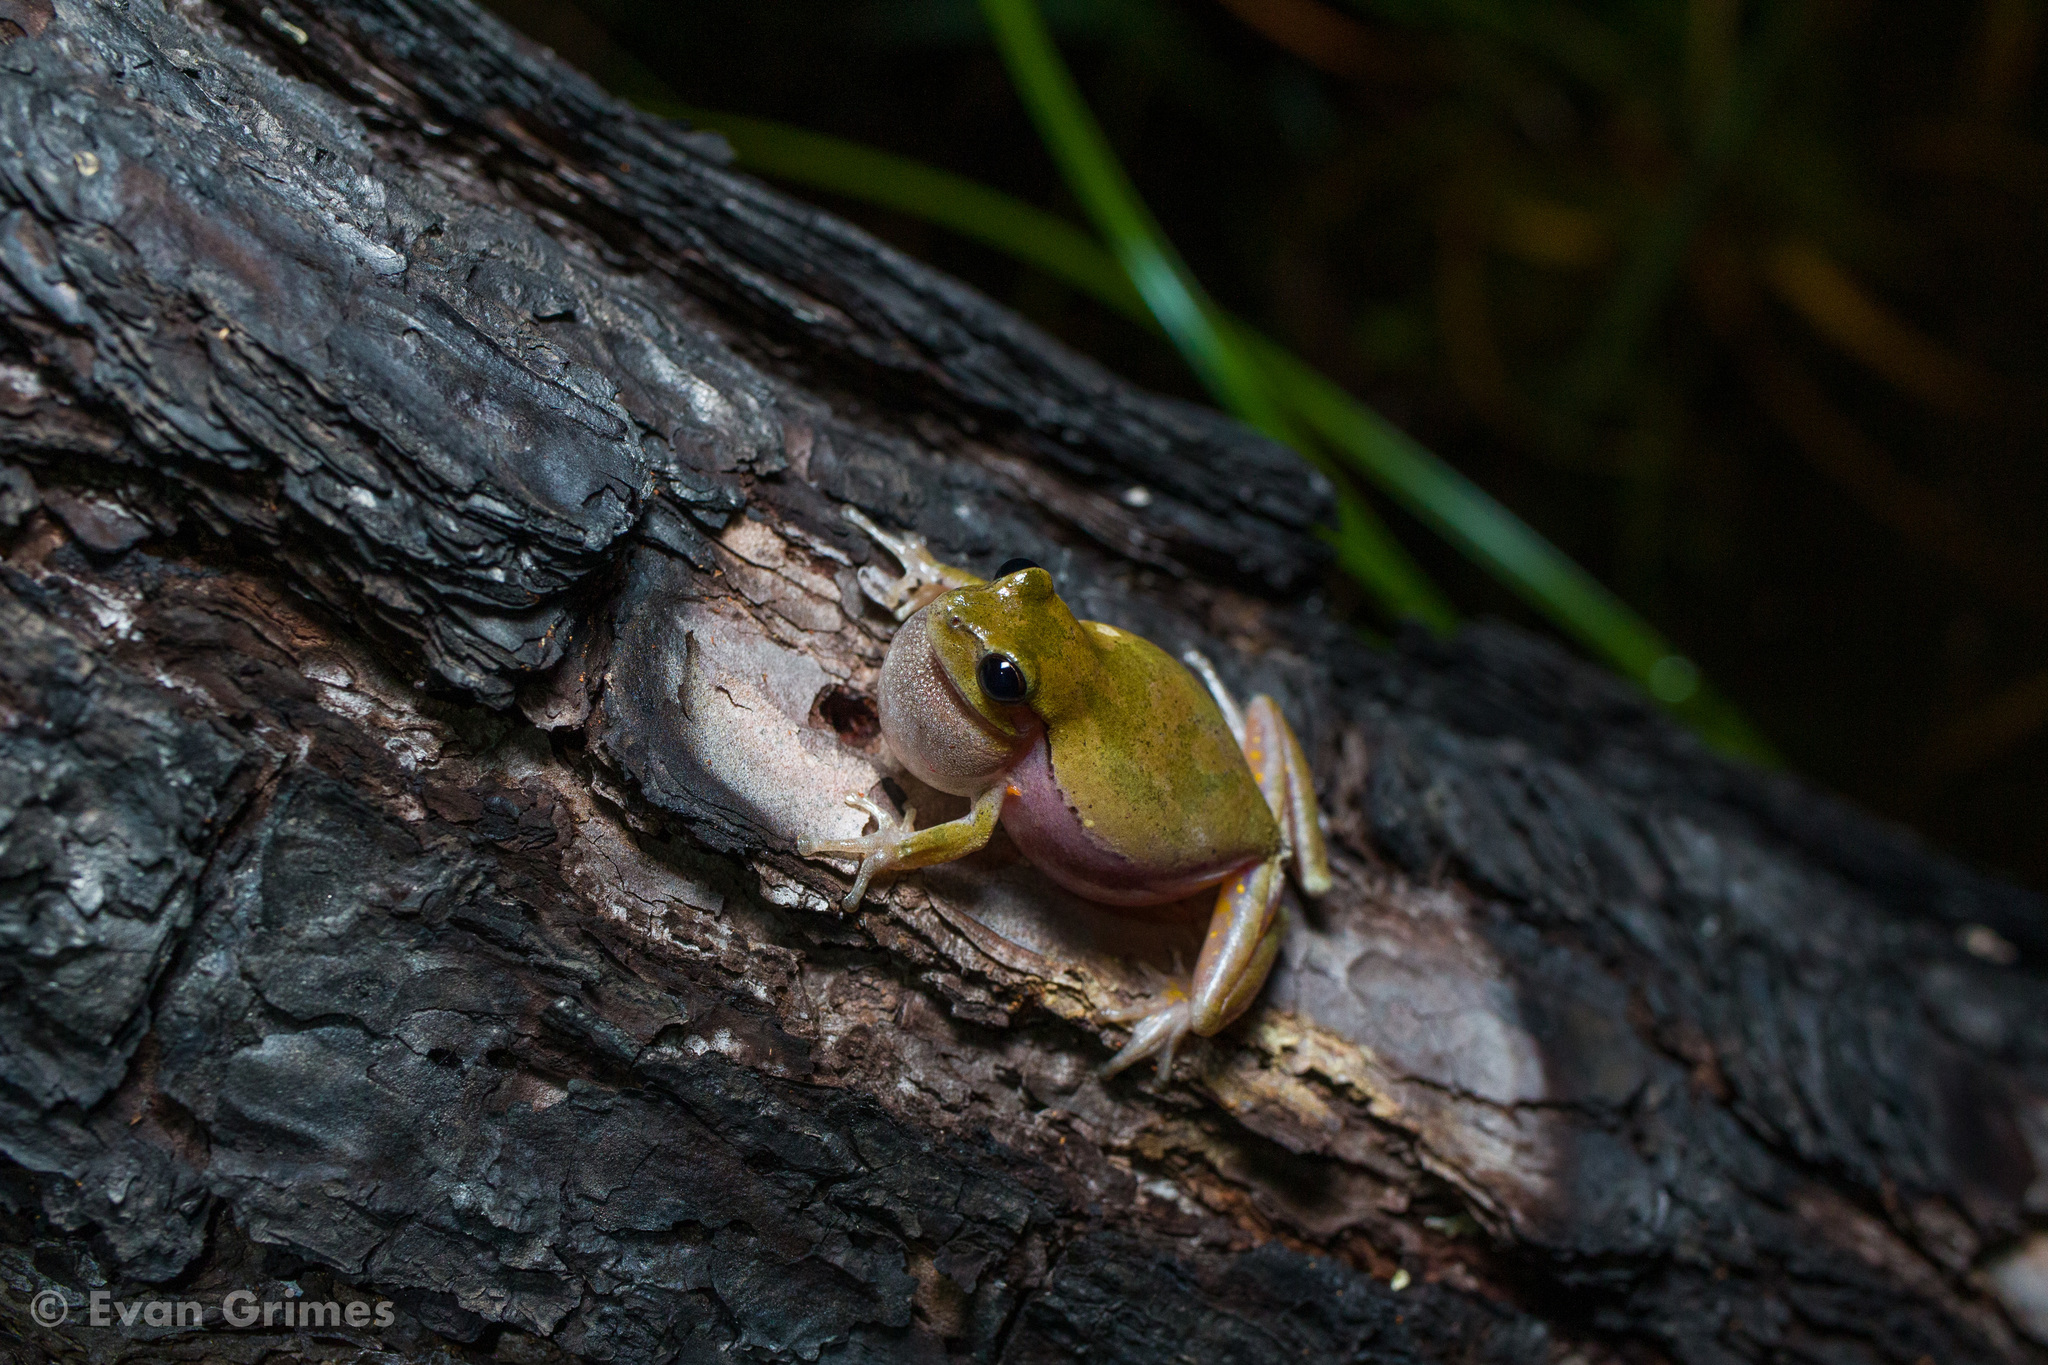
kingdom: Animalia
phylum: Chordata
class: Amphibia
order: Anura
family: Hylidae
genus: Hyla
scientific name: Hyla femoralis
